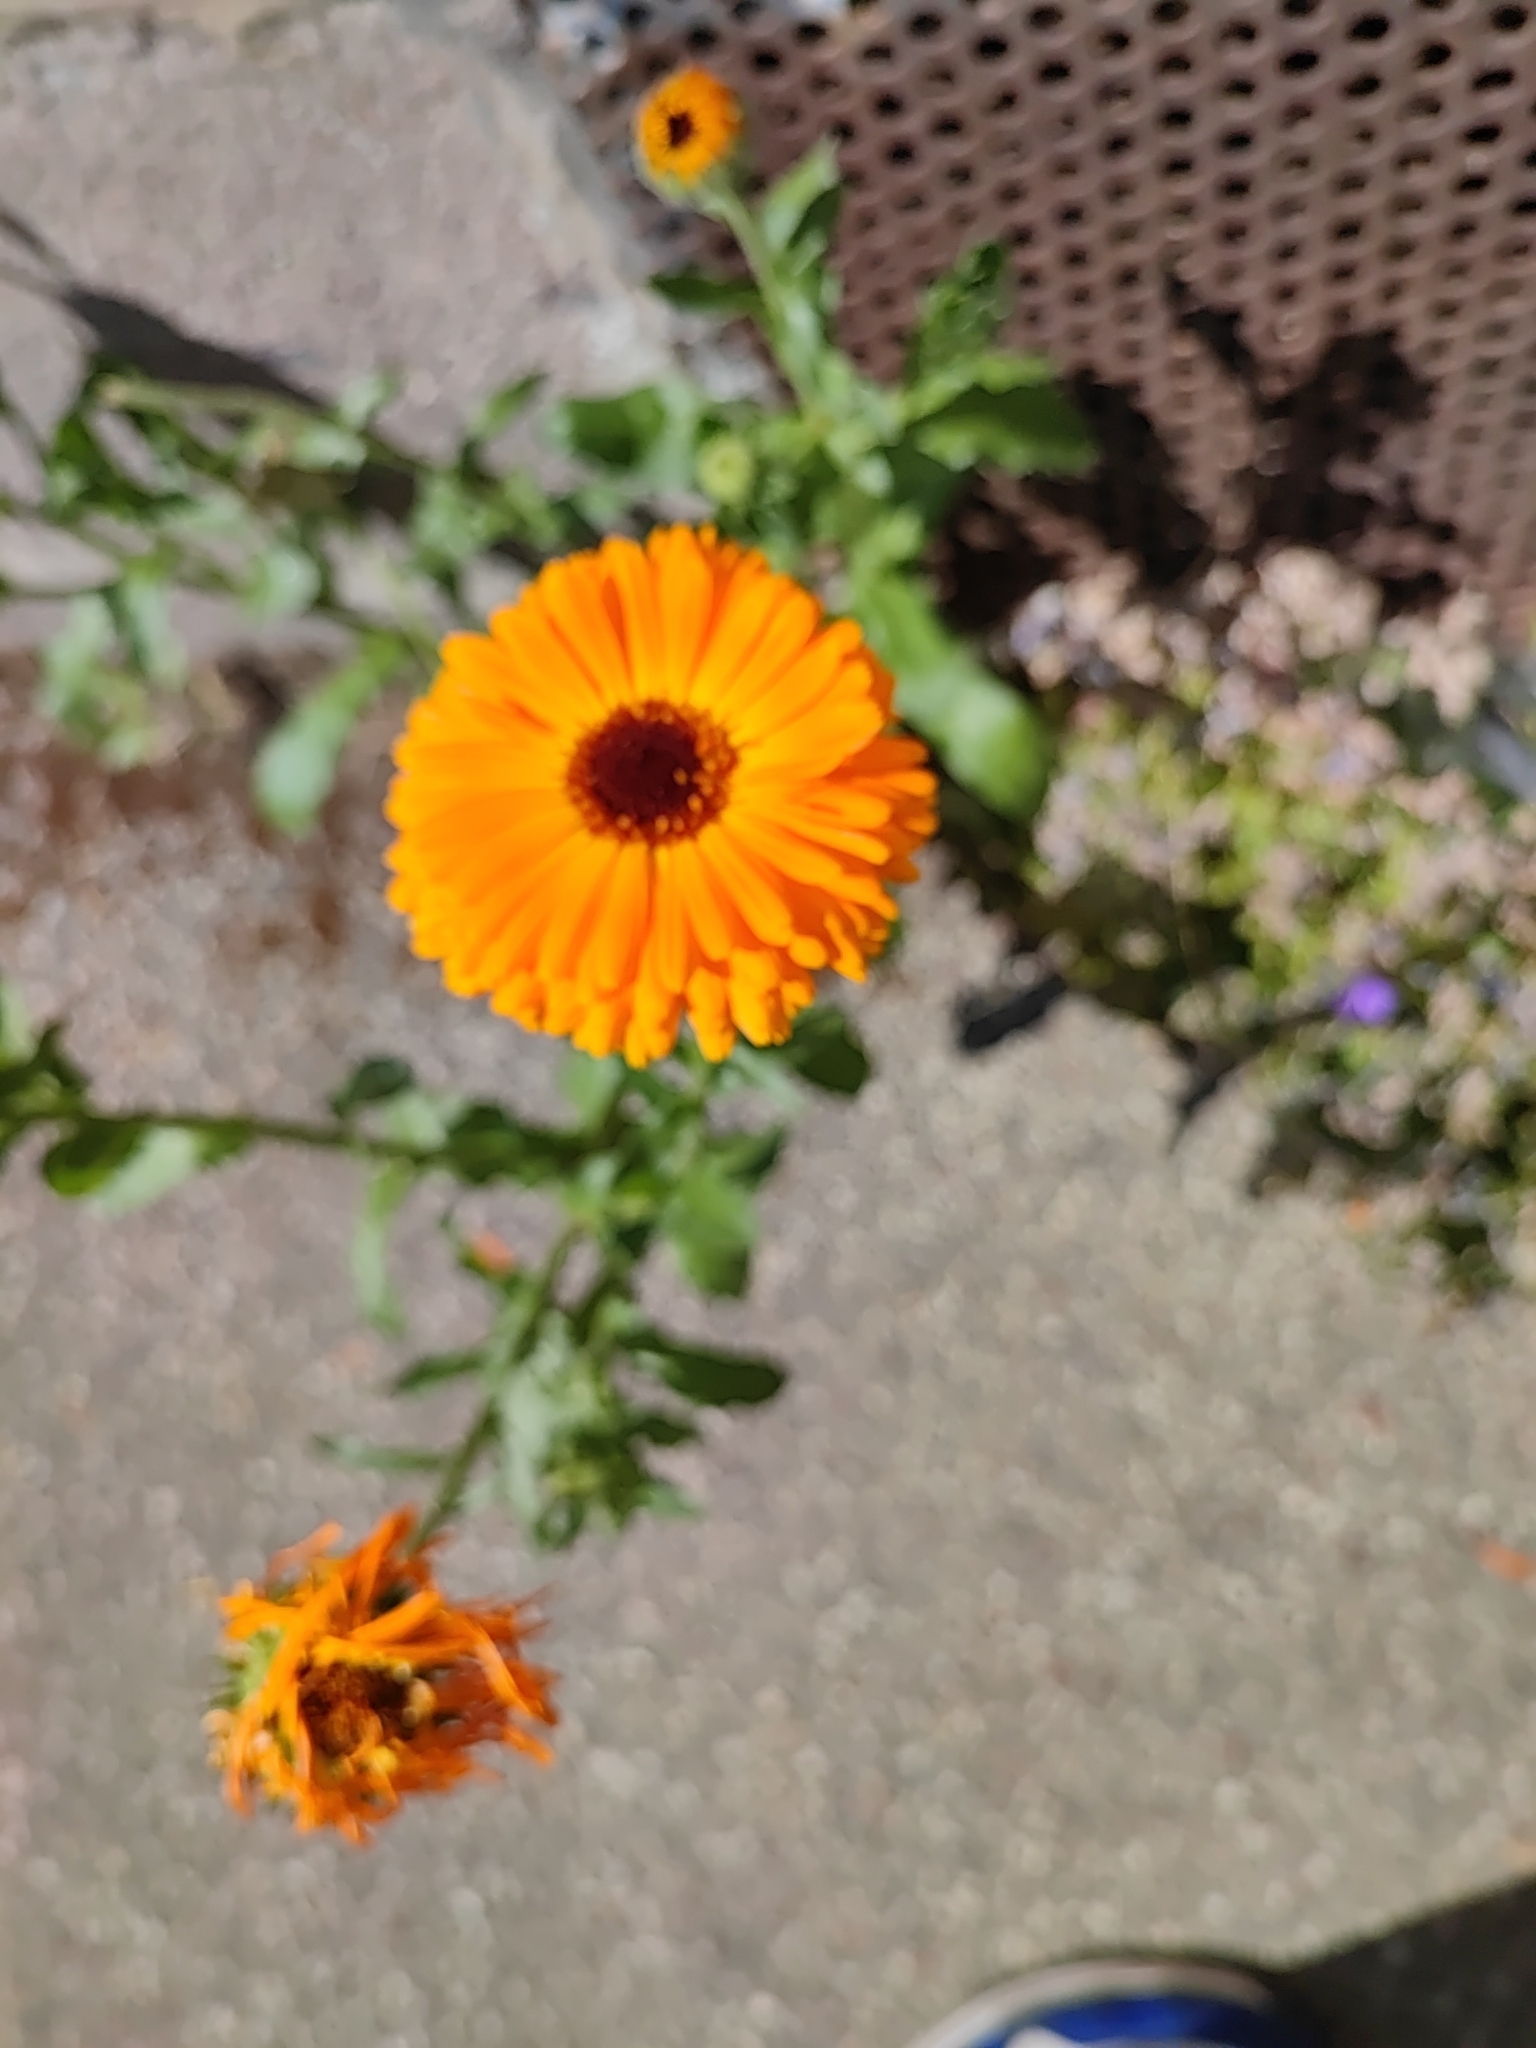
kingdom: Plantae
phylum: Tracheophyta
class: Magnoliopsida
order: Asterales
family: Asteraceae
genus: Calendula
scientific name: Calendula officinalis
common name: Pot marigold
